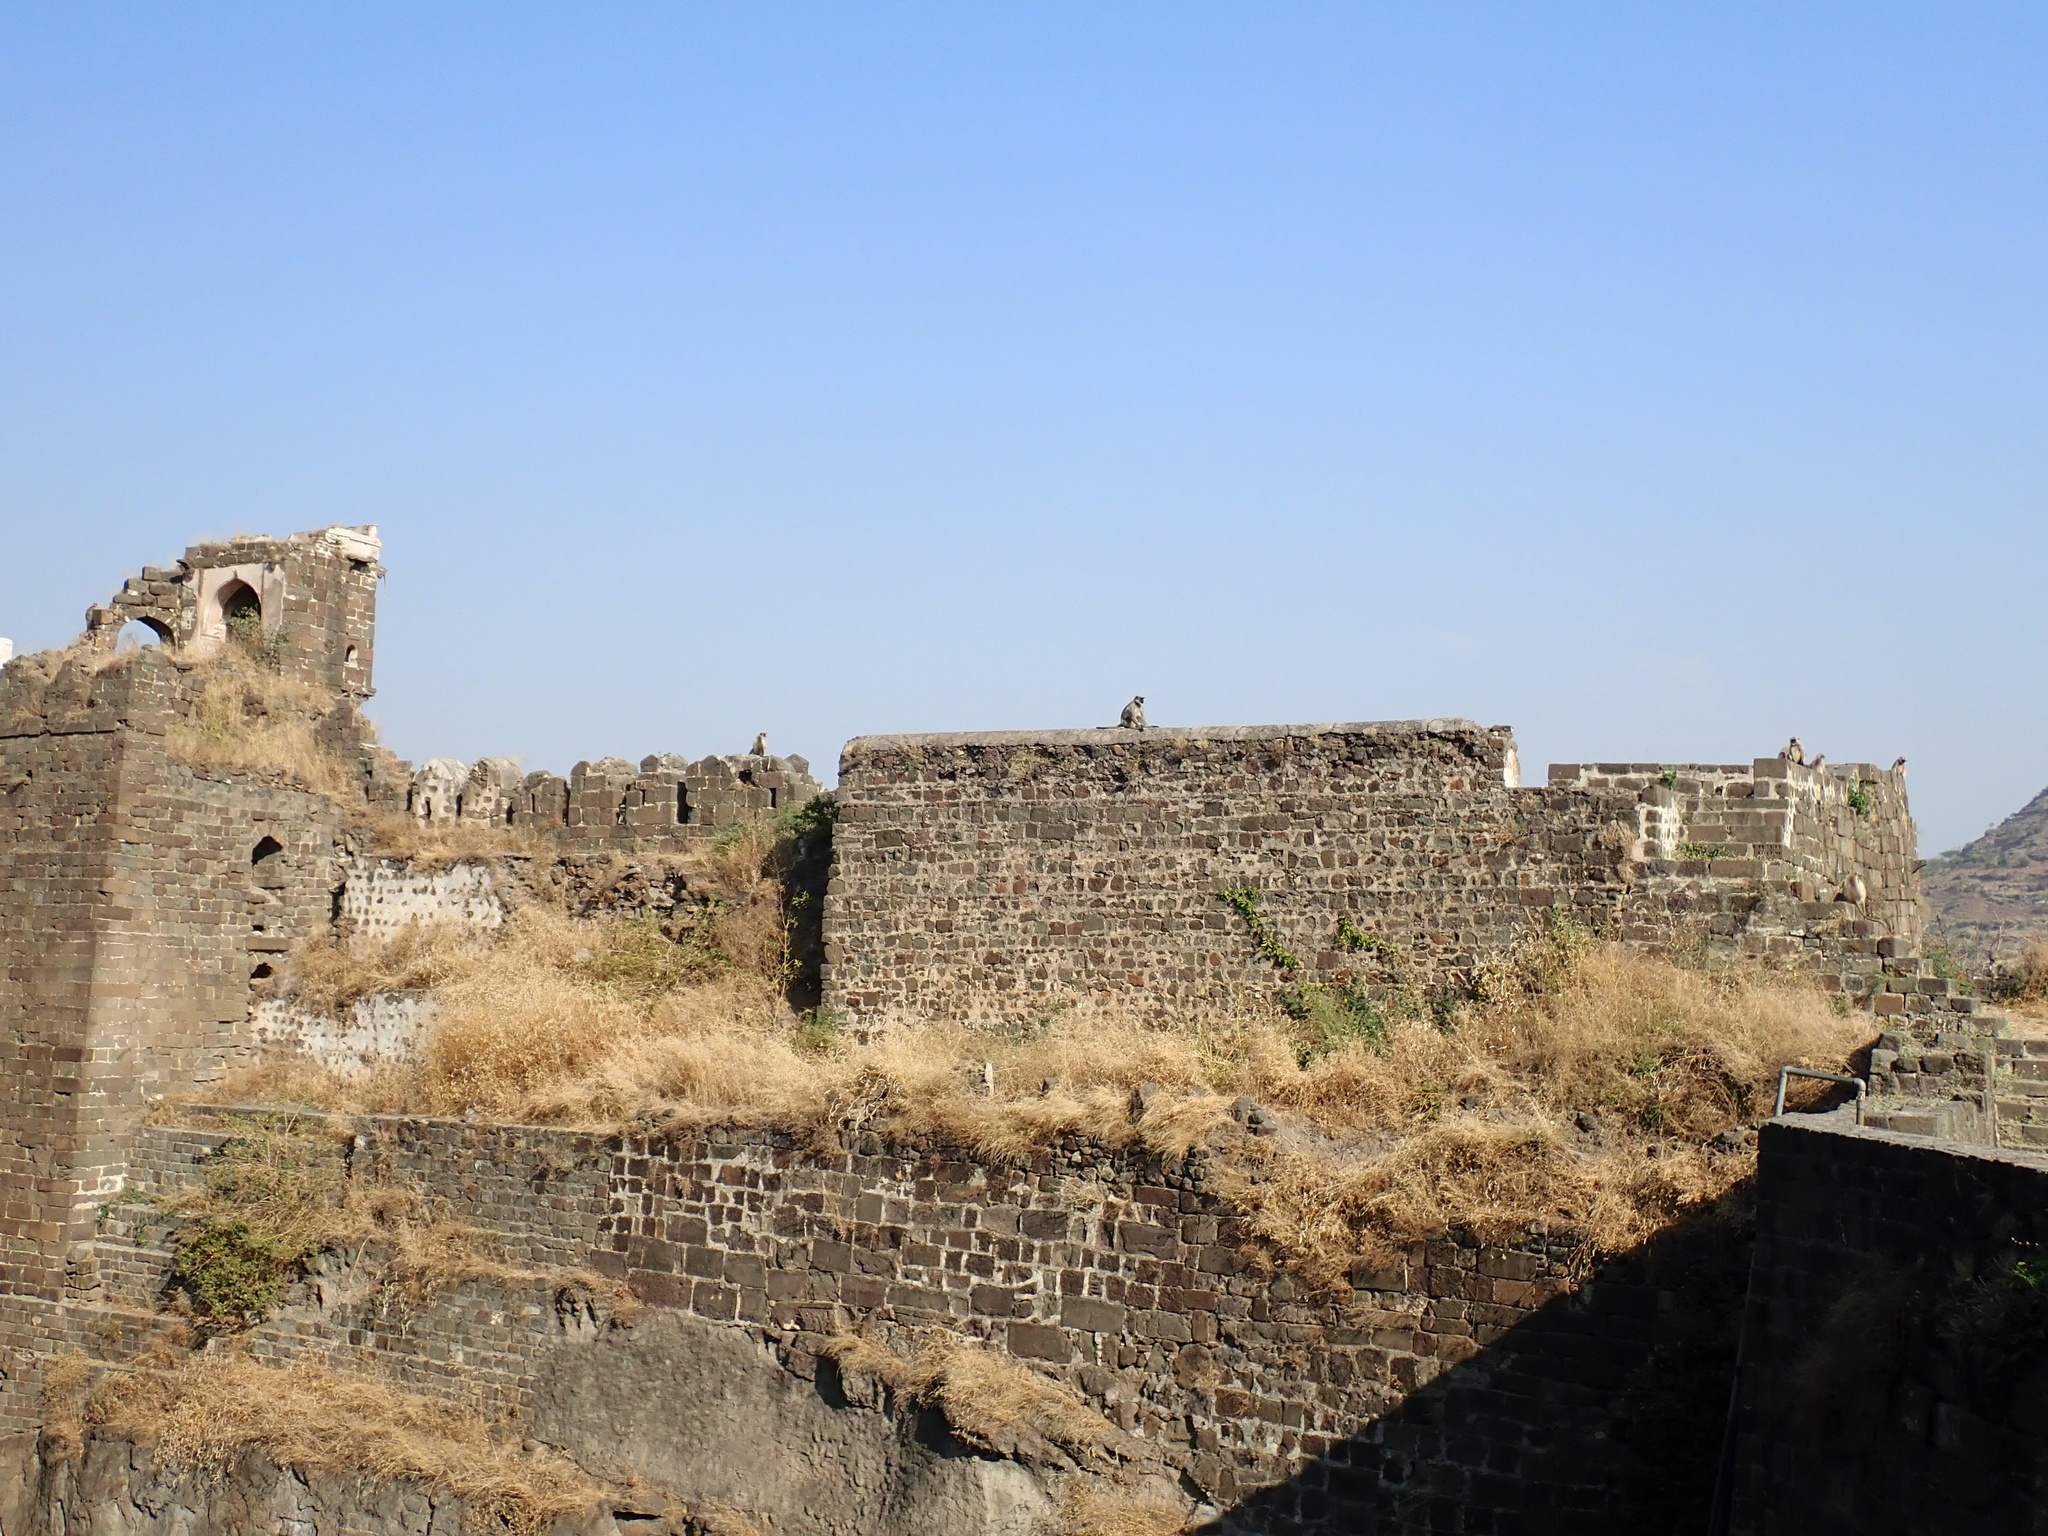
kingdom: Animalia
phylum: Chordata
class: Mammalia
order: Primates
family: Cercopithecidae
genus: Semnopithecus
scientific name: Semnopithecus hypoleucos
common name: Black-footed gray langur
